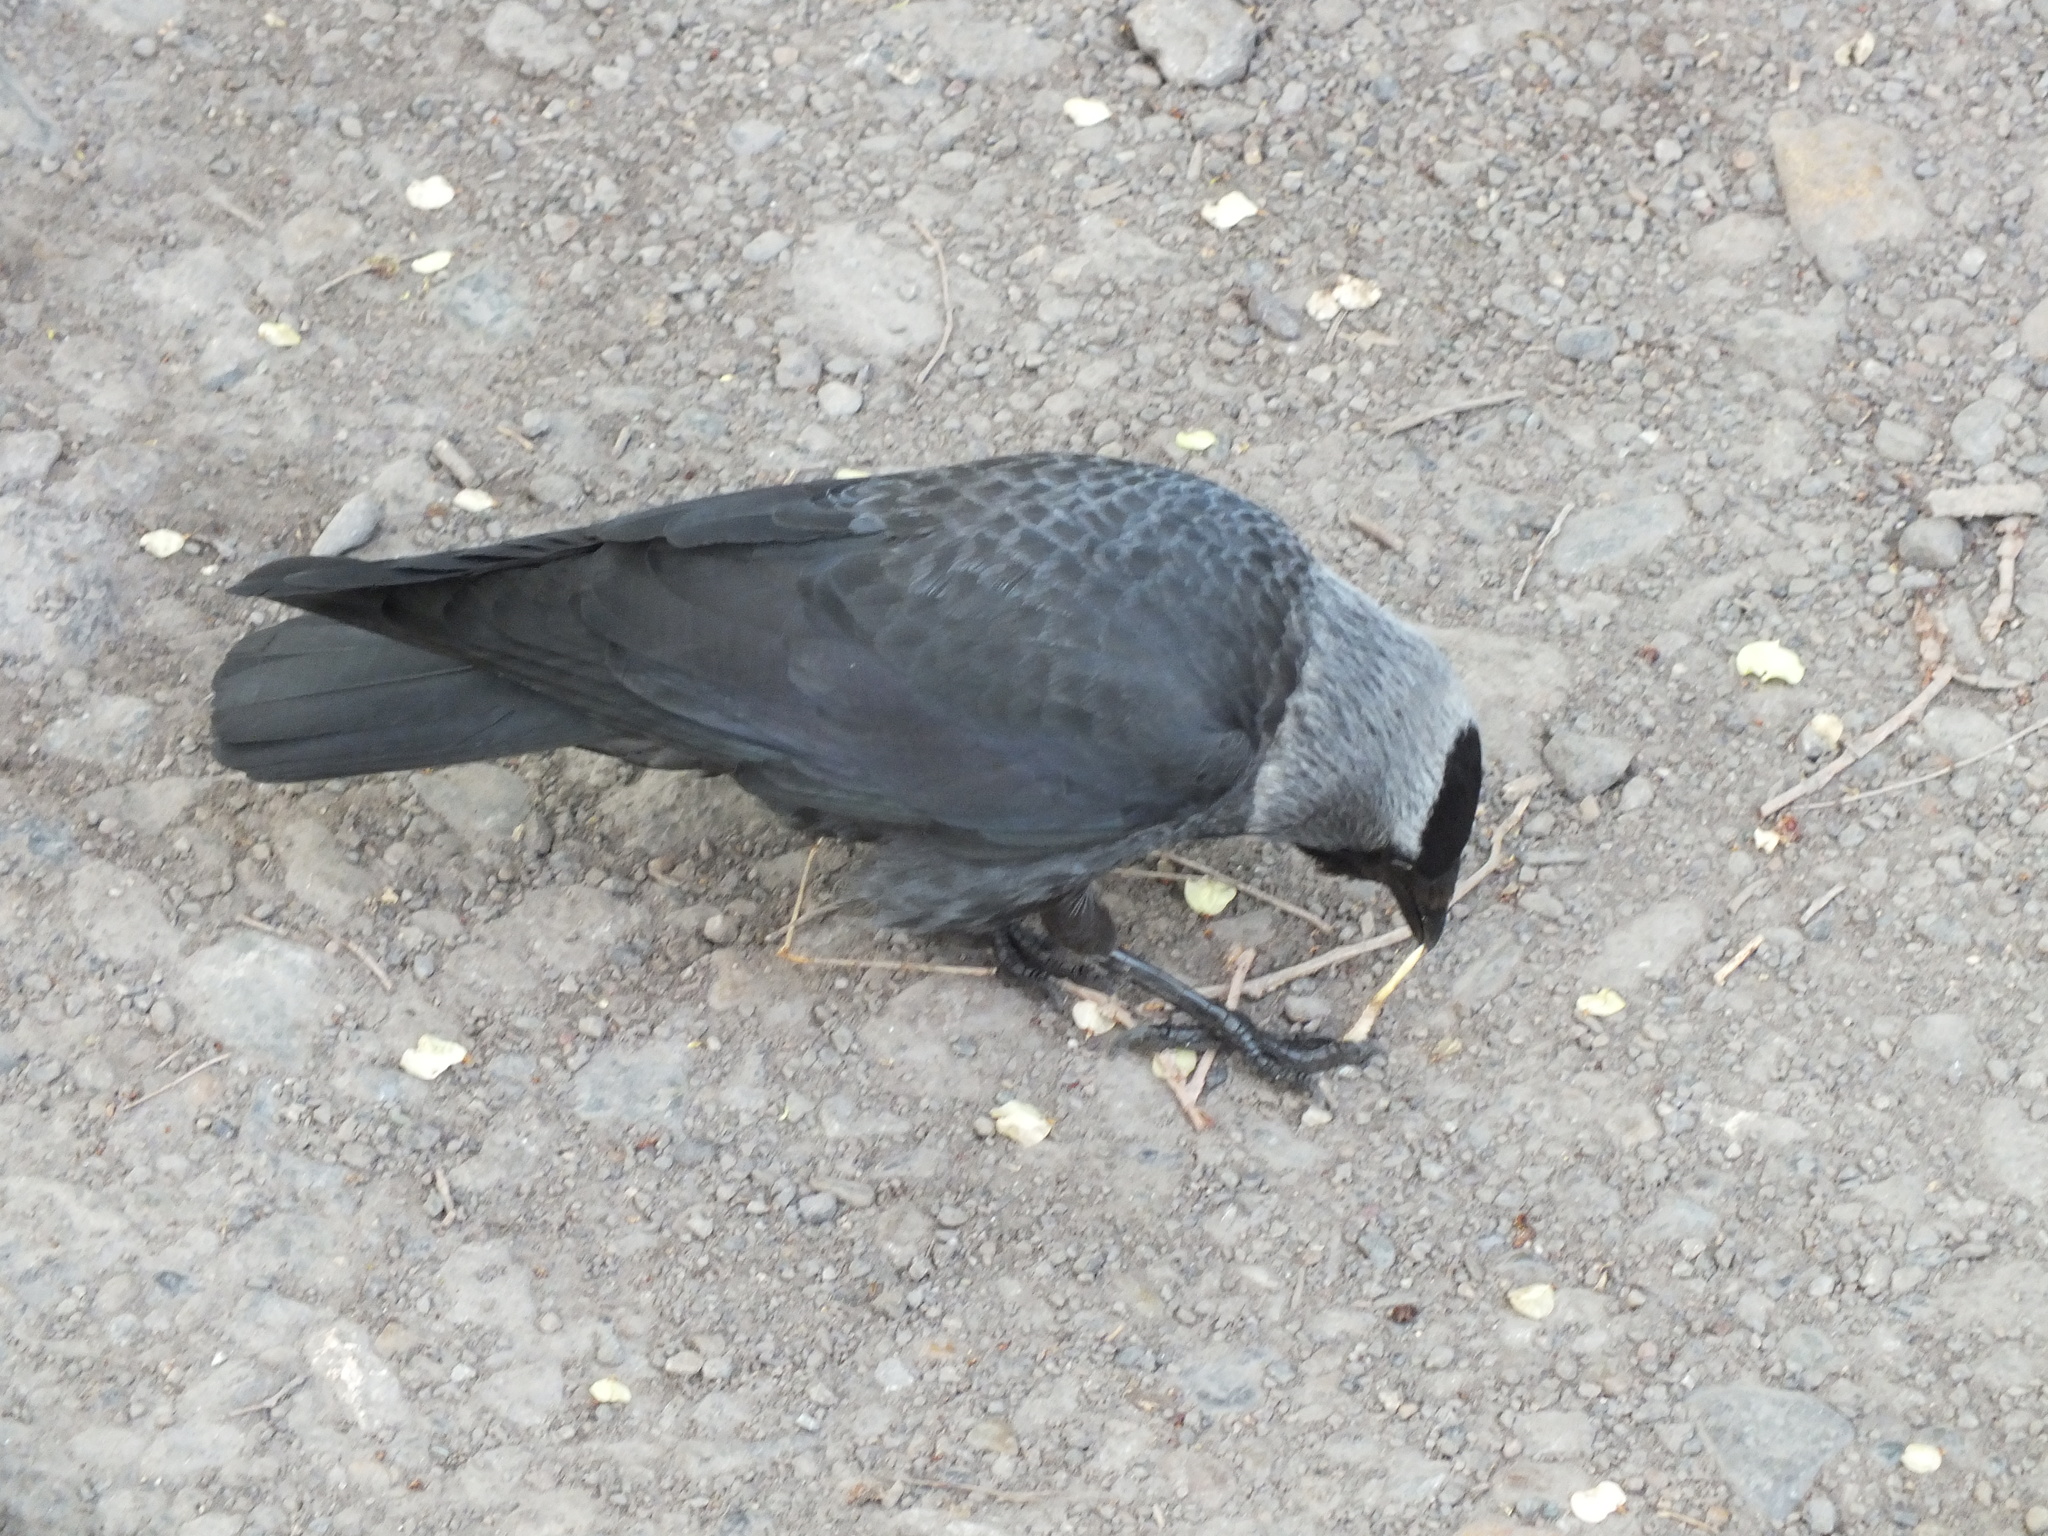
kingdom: Animalia
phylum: Chordata
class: Aves
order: Passeriformes
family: Corvidae
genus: Coloeus
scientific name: Coloeus monedula
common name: Western jackdaw
